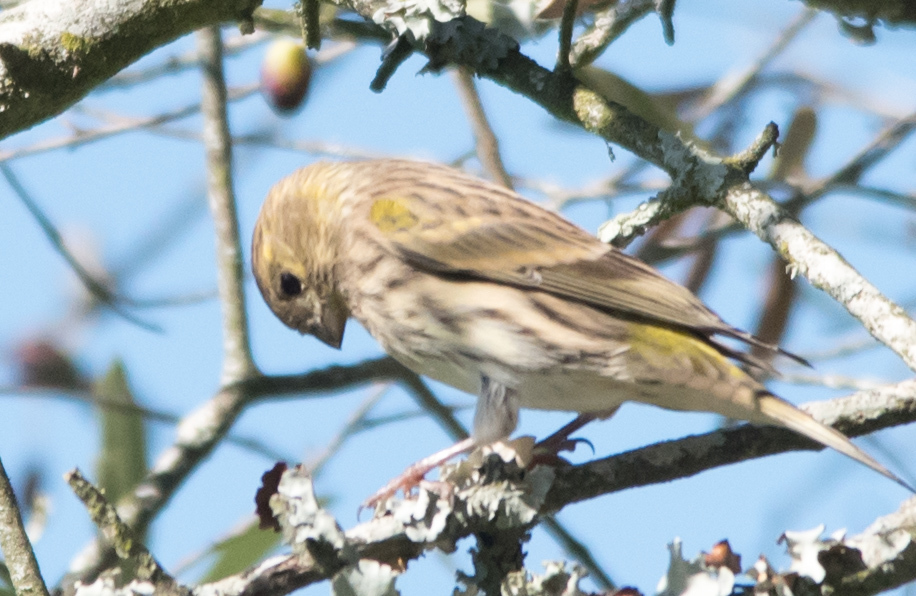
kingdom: Animalia
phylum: Chordata
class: Aves
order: Passeriformes
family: Fringillidae
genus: Serinus
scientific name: Serinus serinus
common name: European serin
